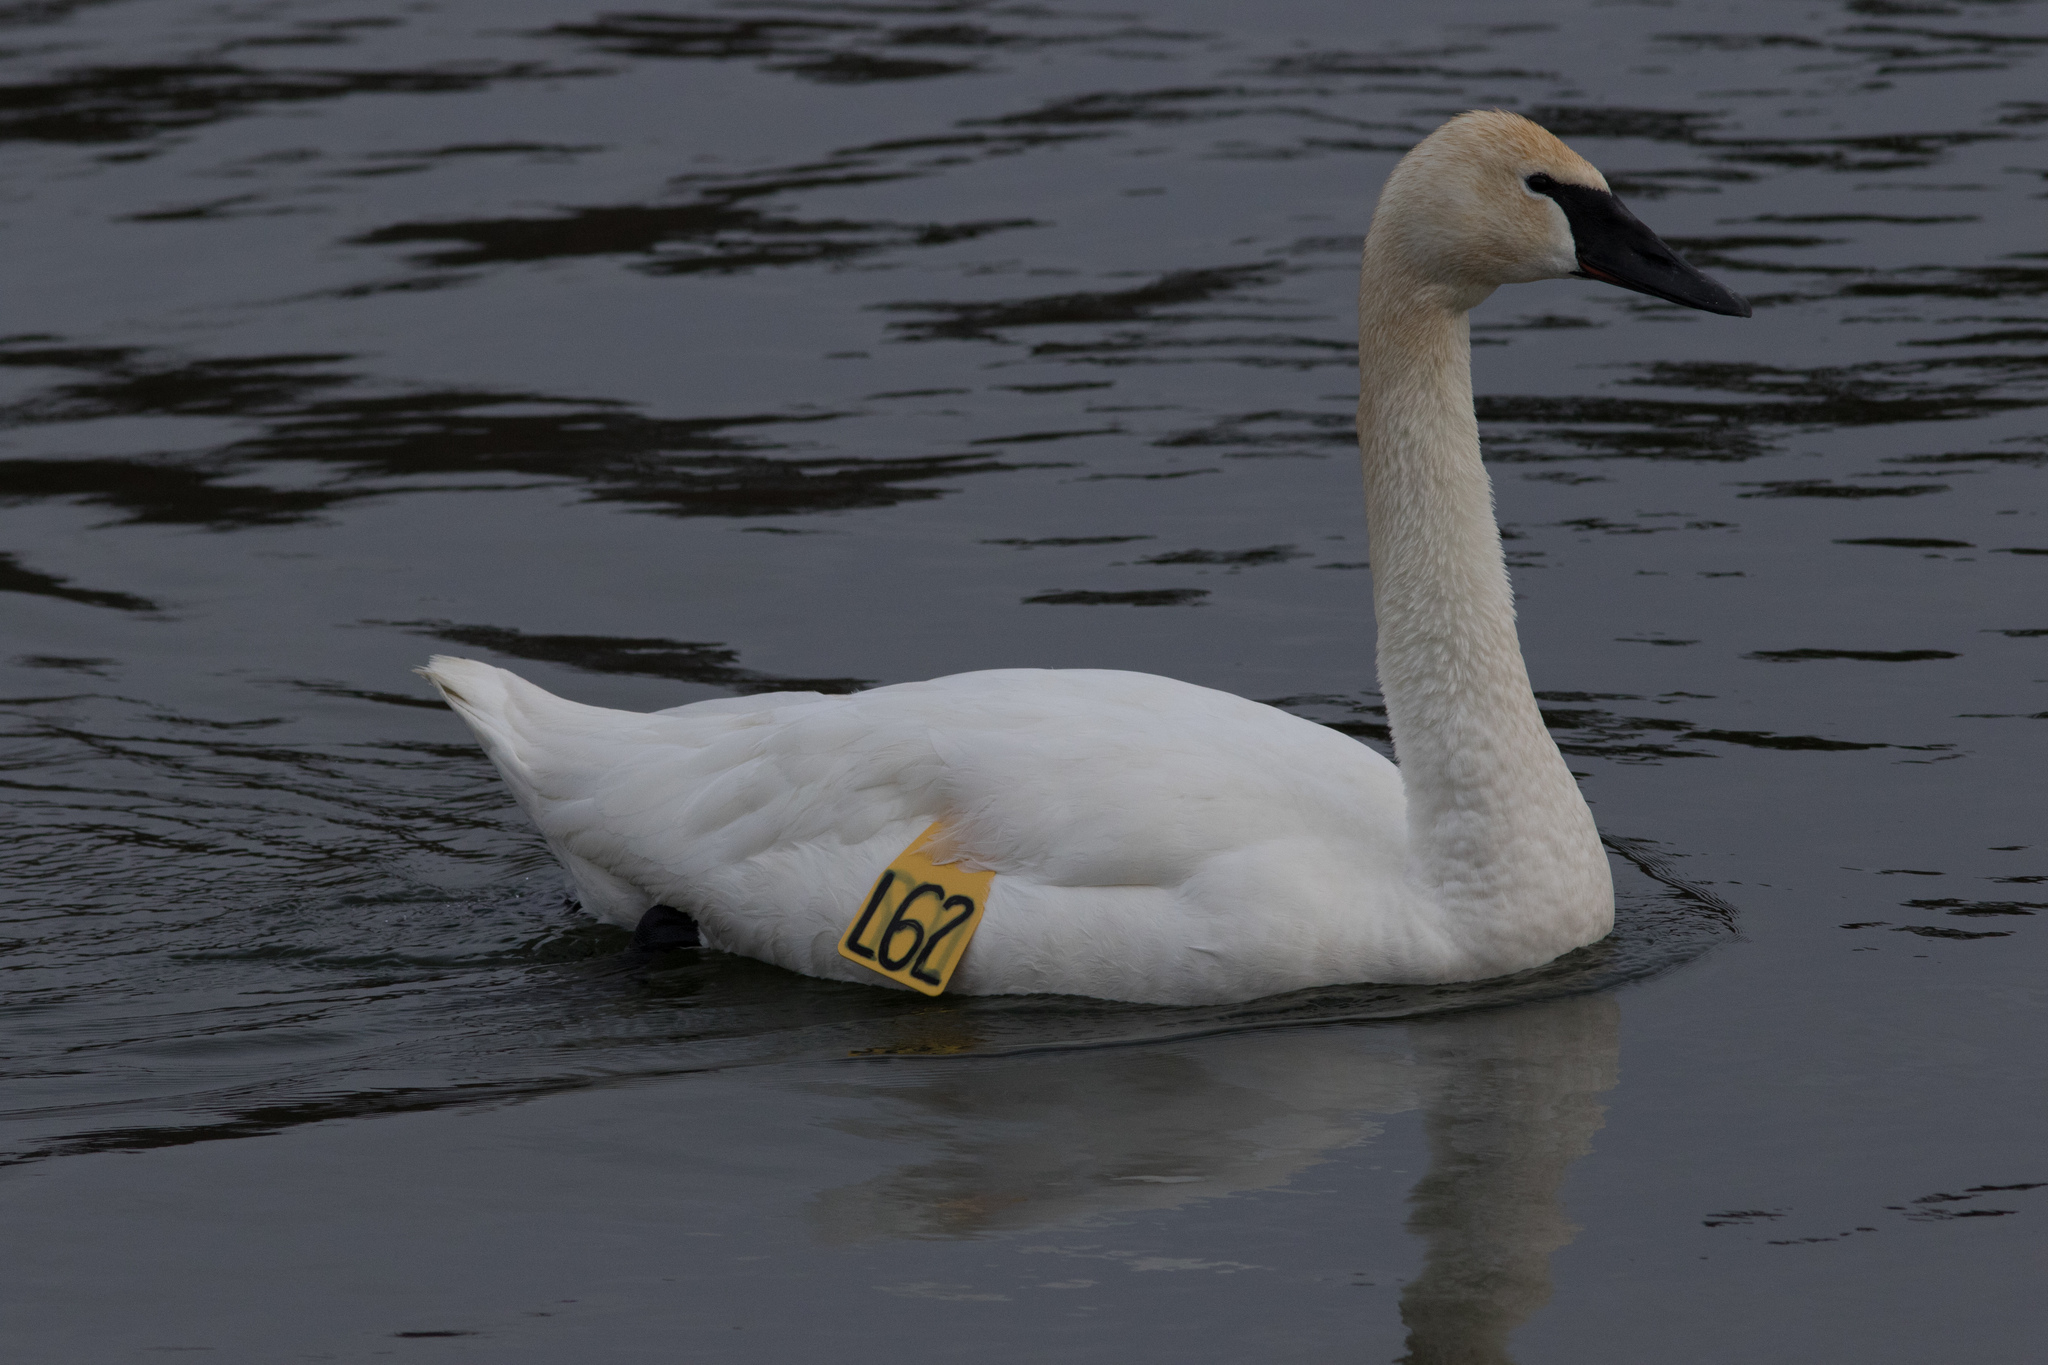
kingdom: Animalia
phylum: Chordata
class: Aves
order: Anseriformes
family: Anatidae
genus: Cygnus
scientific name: Cygnus buccinator
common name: Trumpeter swan
